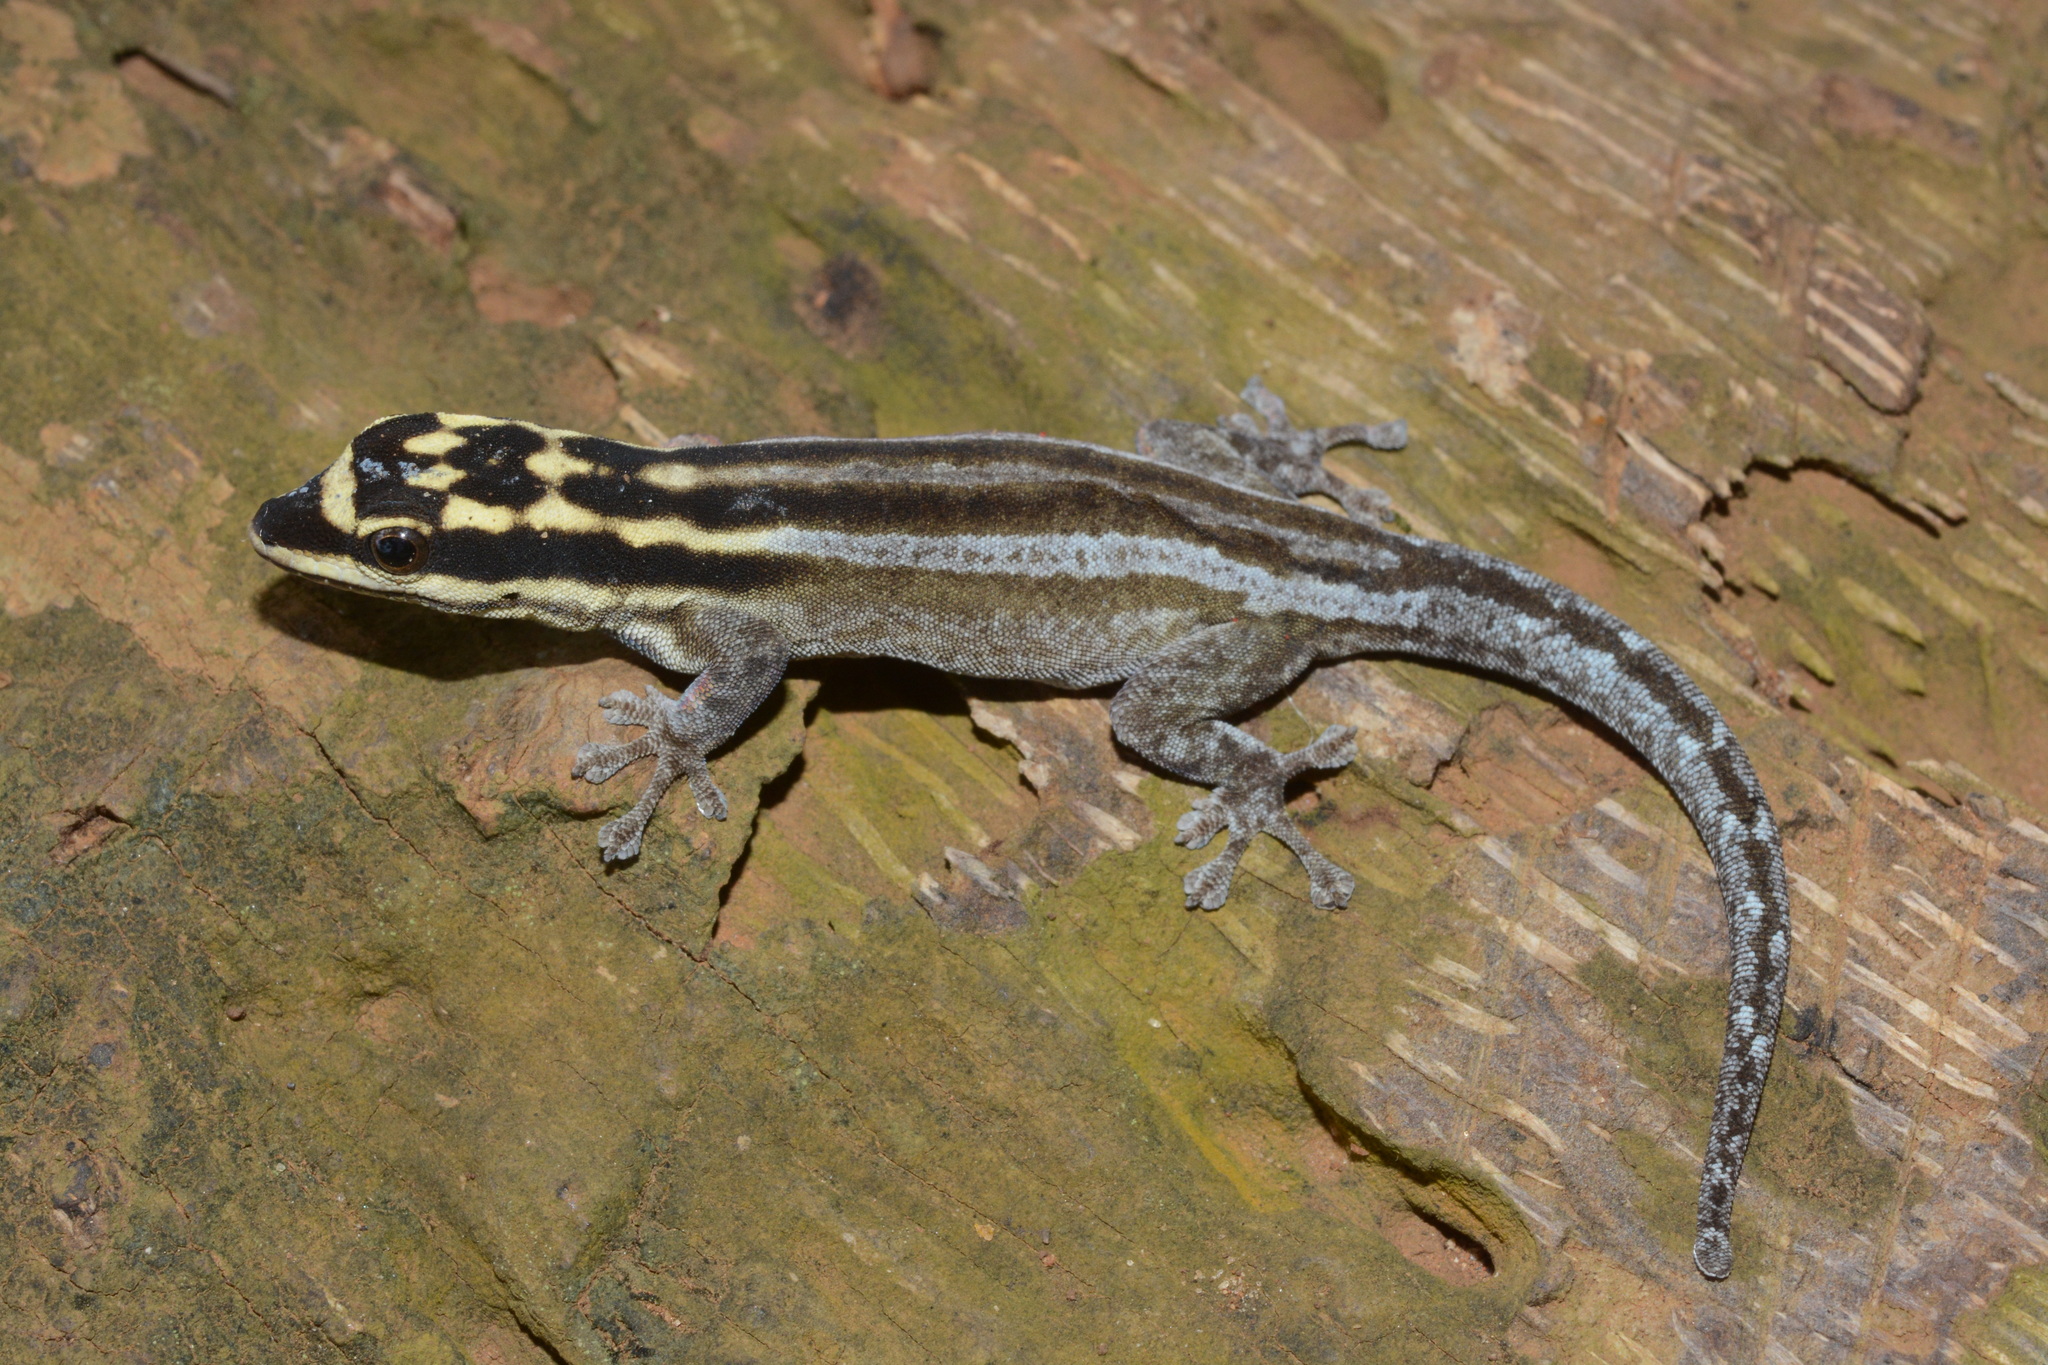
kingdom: Animalia
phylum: Chordata
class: Squamata
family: Gekkonidae
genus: Lygodactylus
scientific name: Lygodactylus mombasicus
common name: White-headed dwarf gecko
